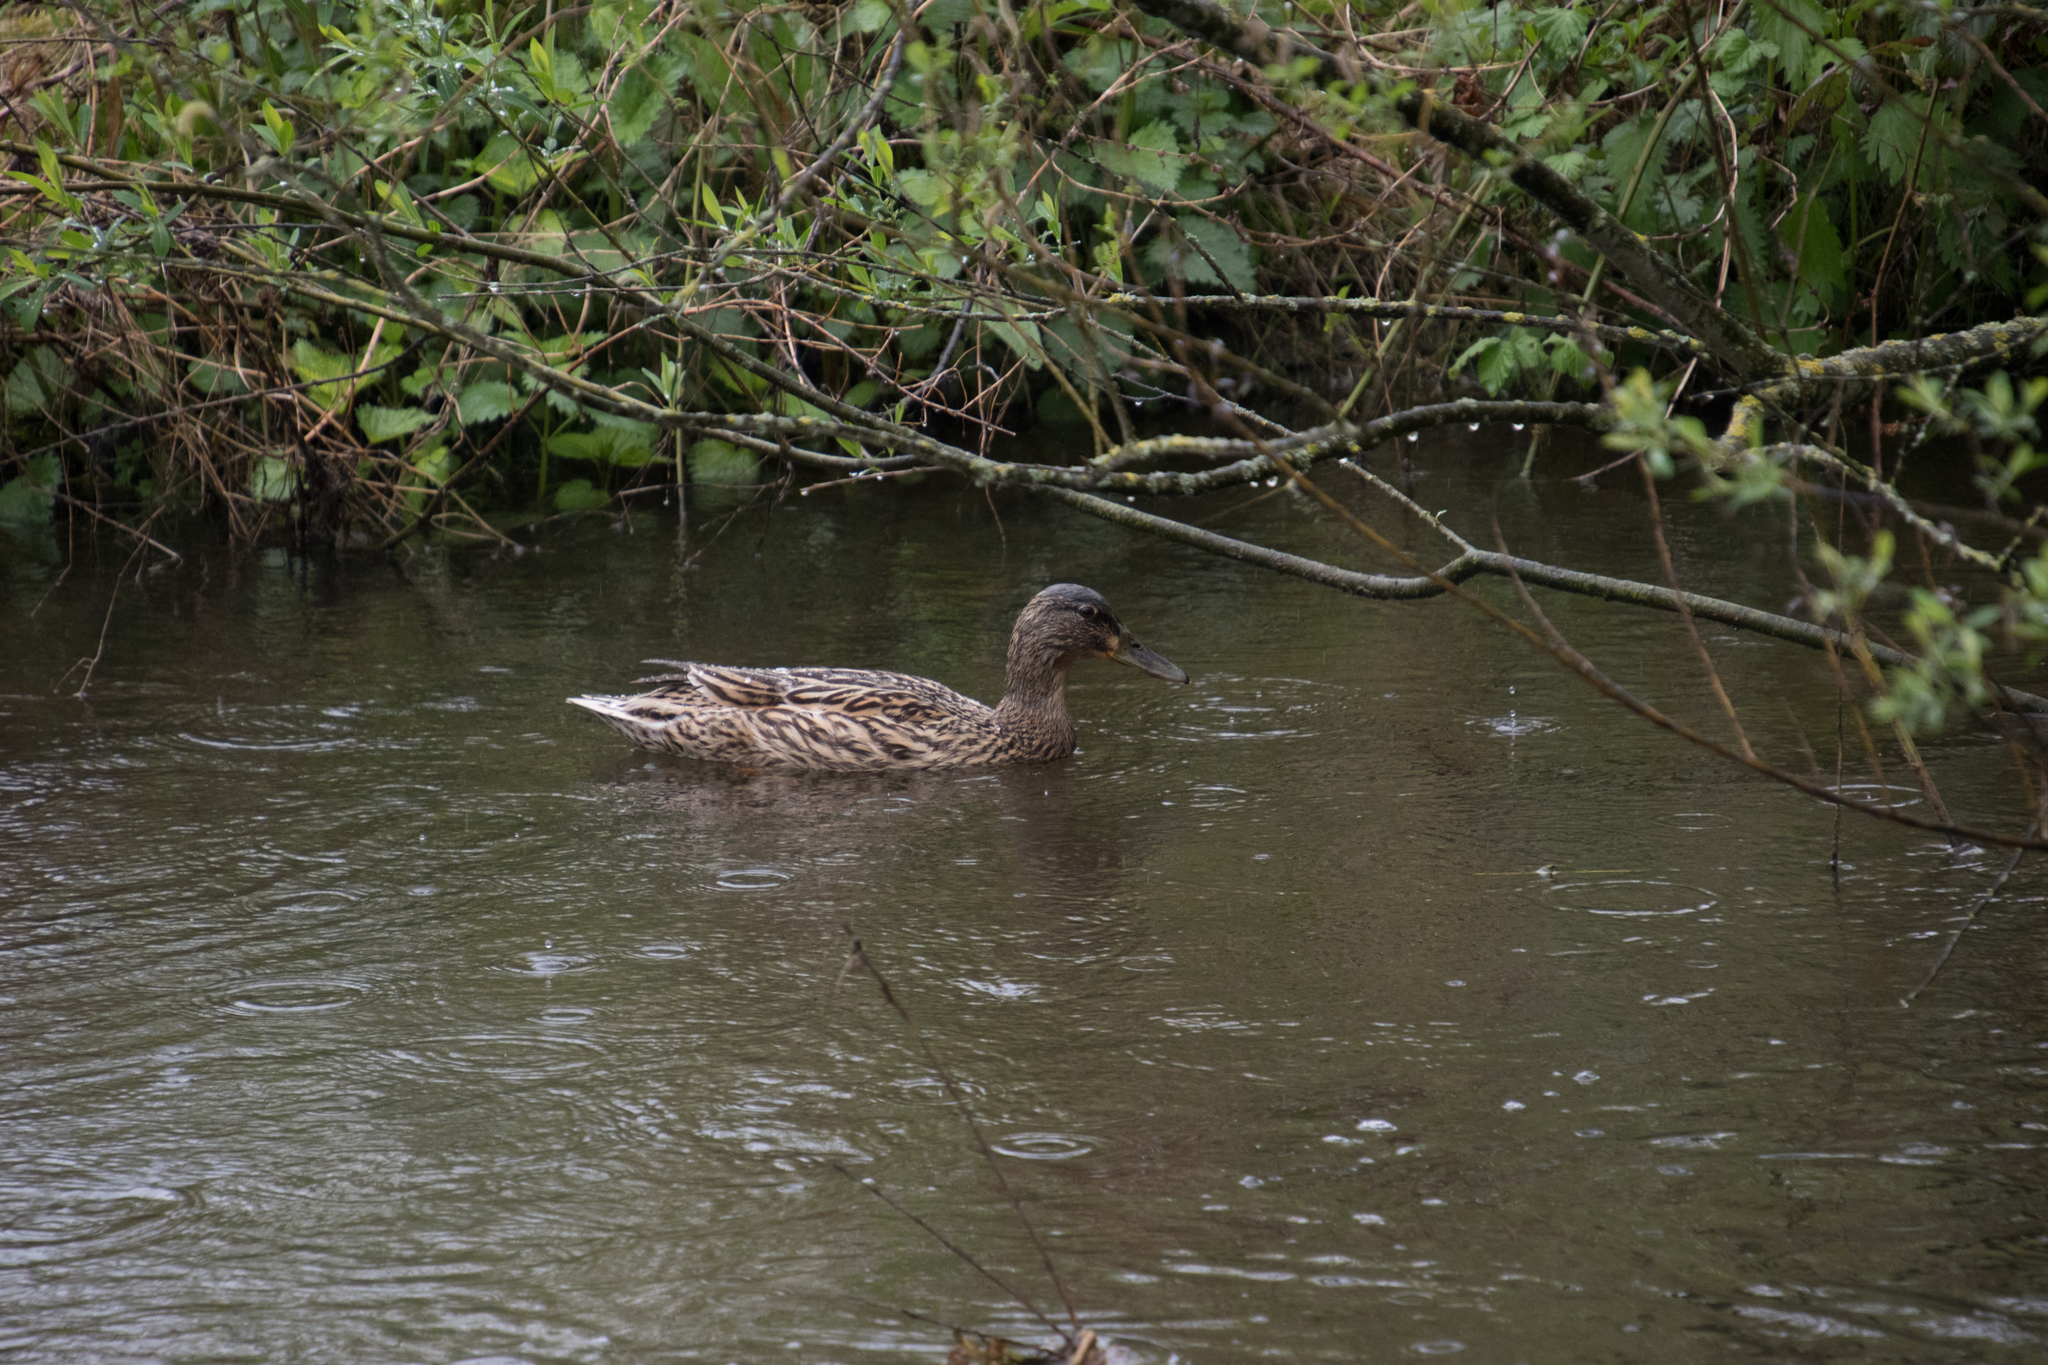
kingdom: Animalia
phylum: Chordata
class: Aves
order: Anseriformes
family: Anatidae
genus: Anas
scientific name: Anas platyrhynchos
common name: Mallard
